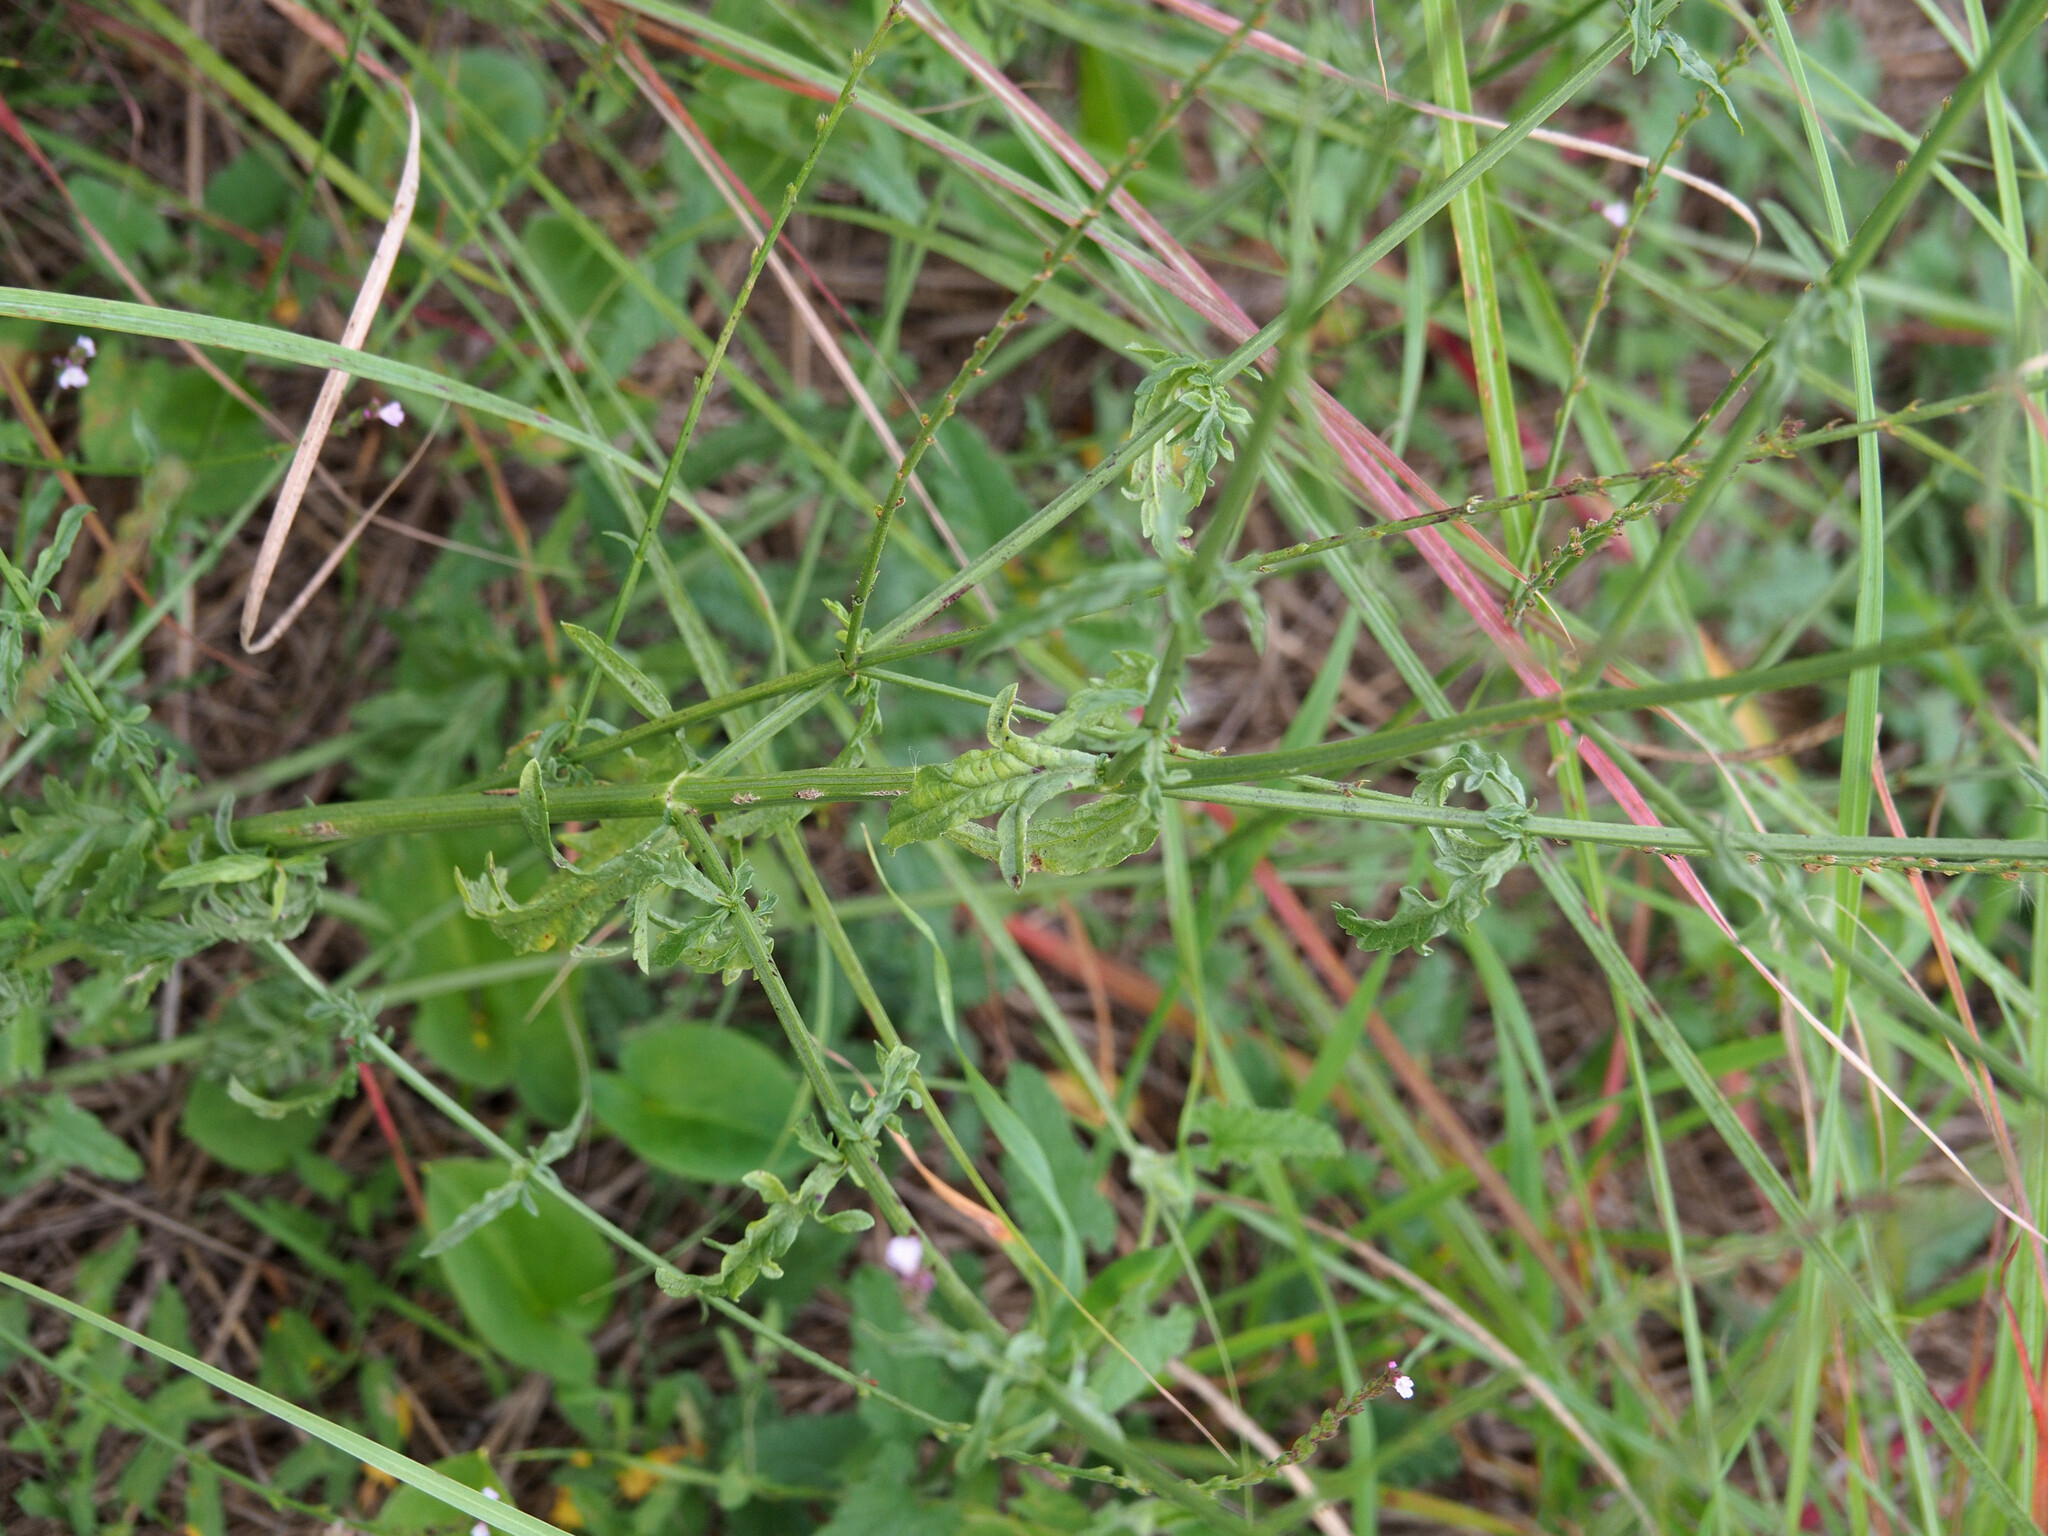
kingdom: Plantae
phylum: Tracheophyta
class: Magnoliopsida
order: Lamiales
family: Verbenaceae
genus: Verbena
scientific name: Verbena officinalis
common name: Vervain
